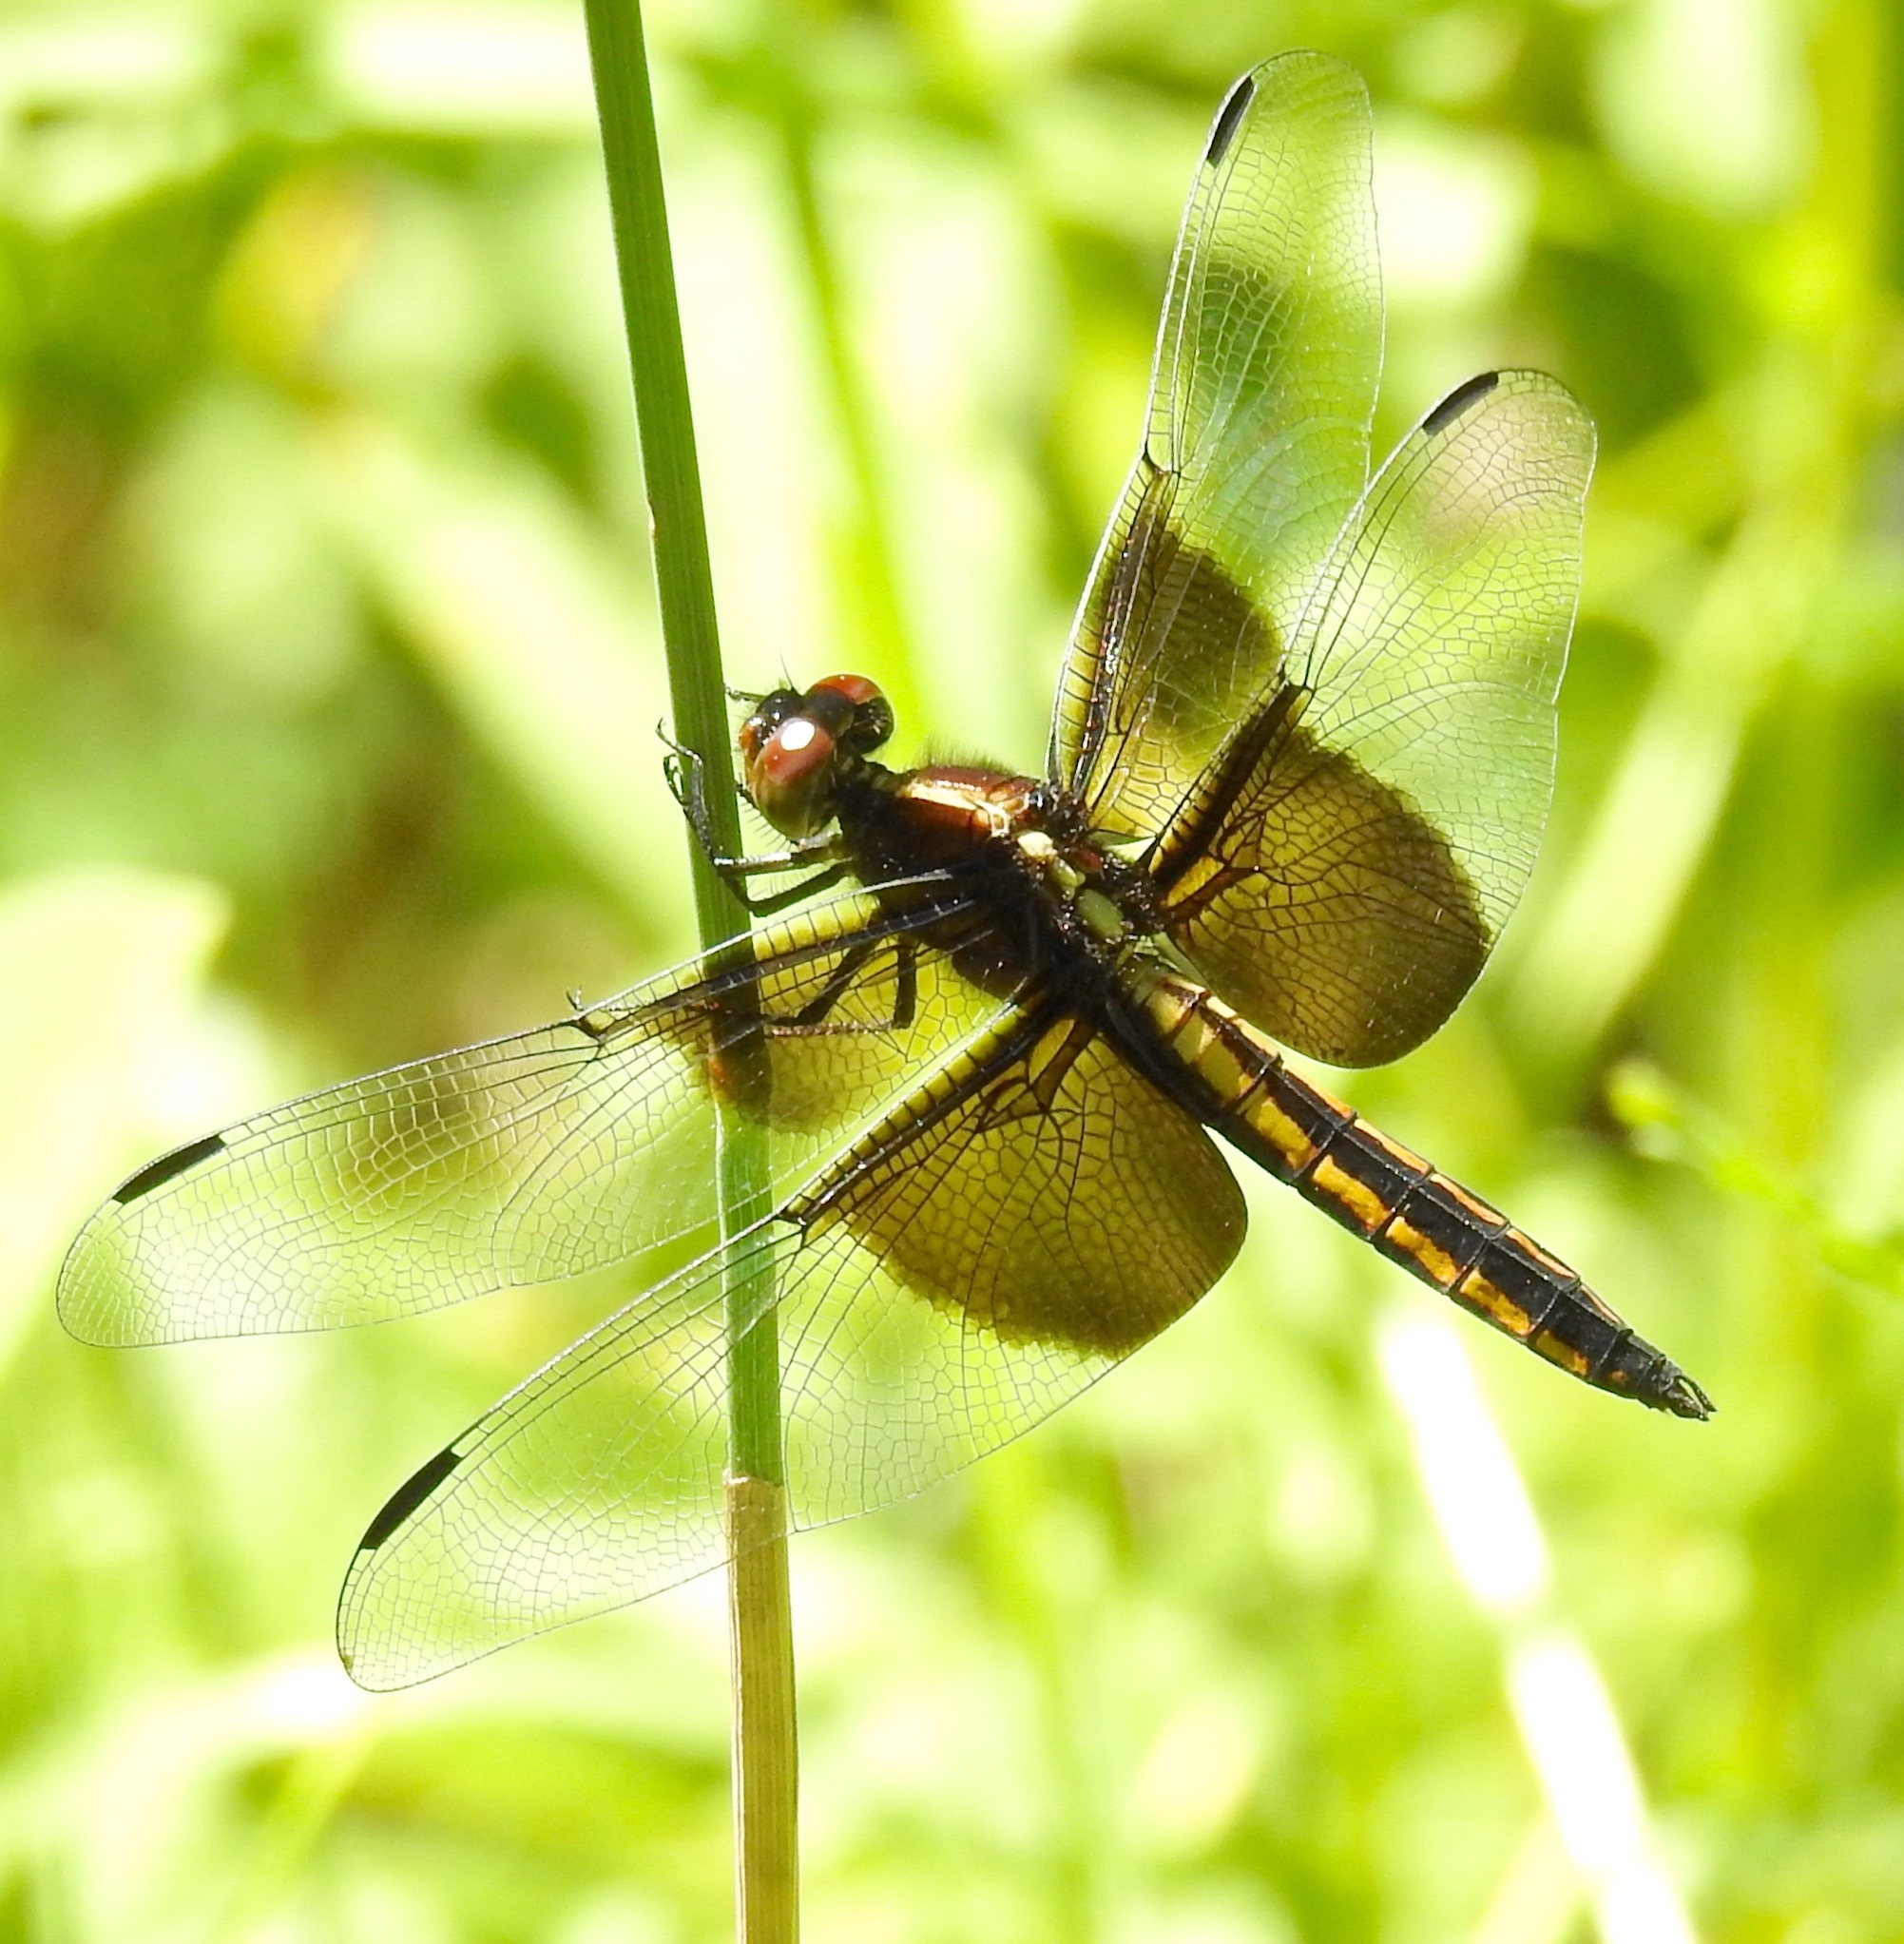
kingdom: Animalia
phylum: Arthropoda
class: Insecta
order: Odonata
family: Libellulidae
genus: Libellula
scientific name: Libellula luctuosa
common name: Widow skimmer
